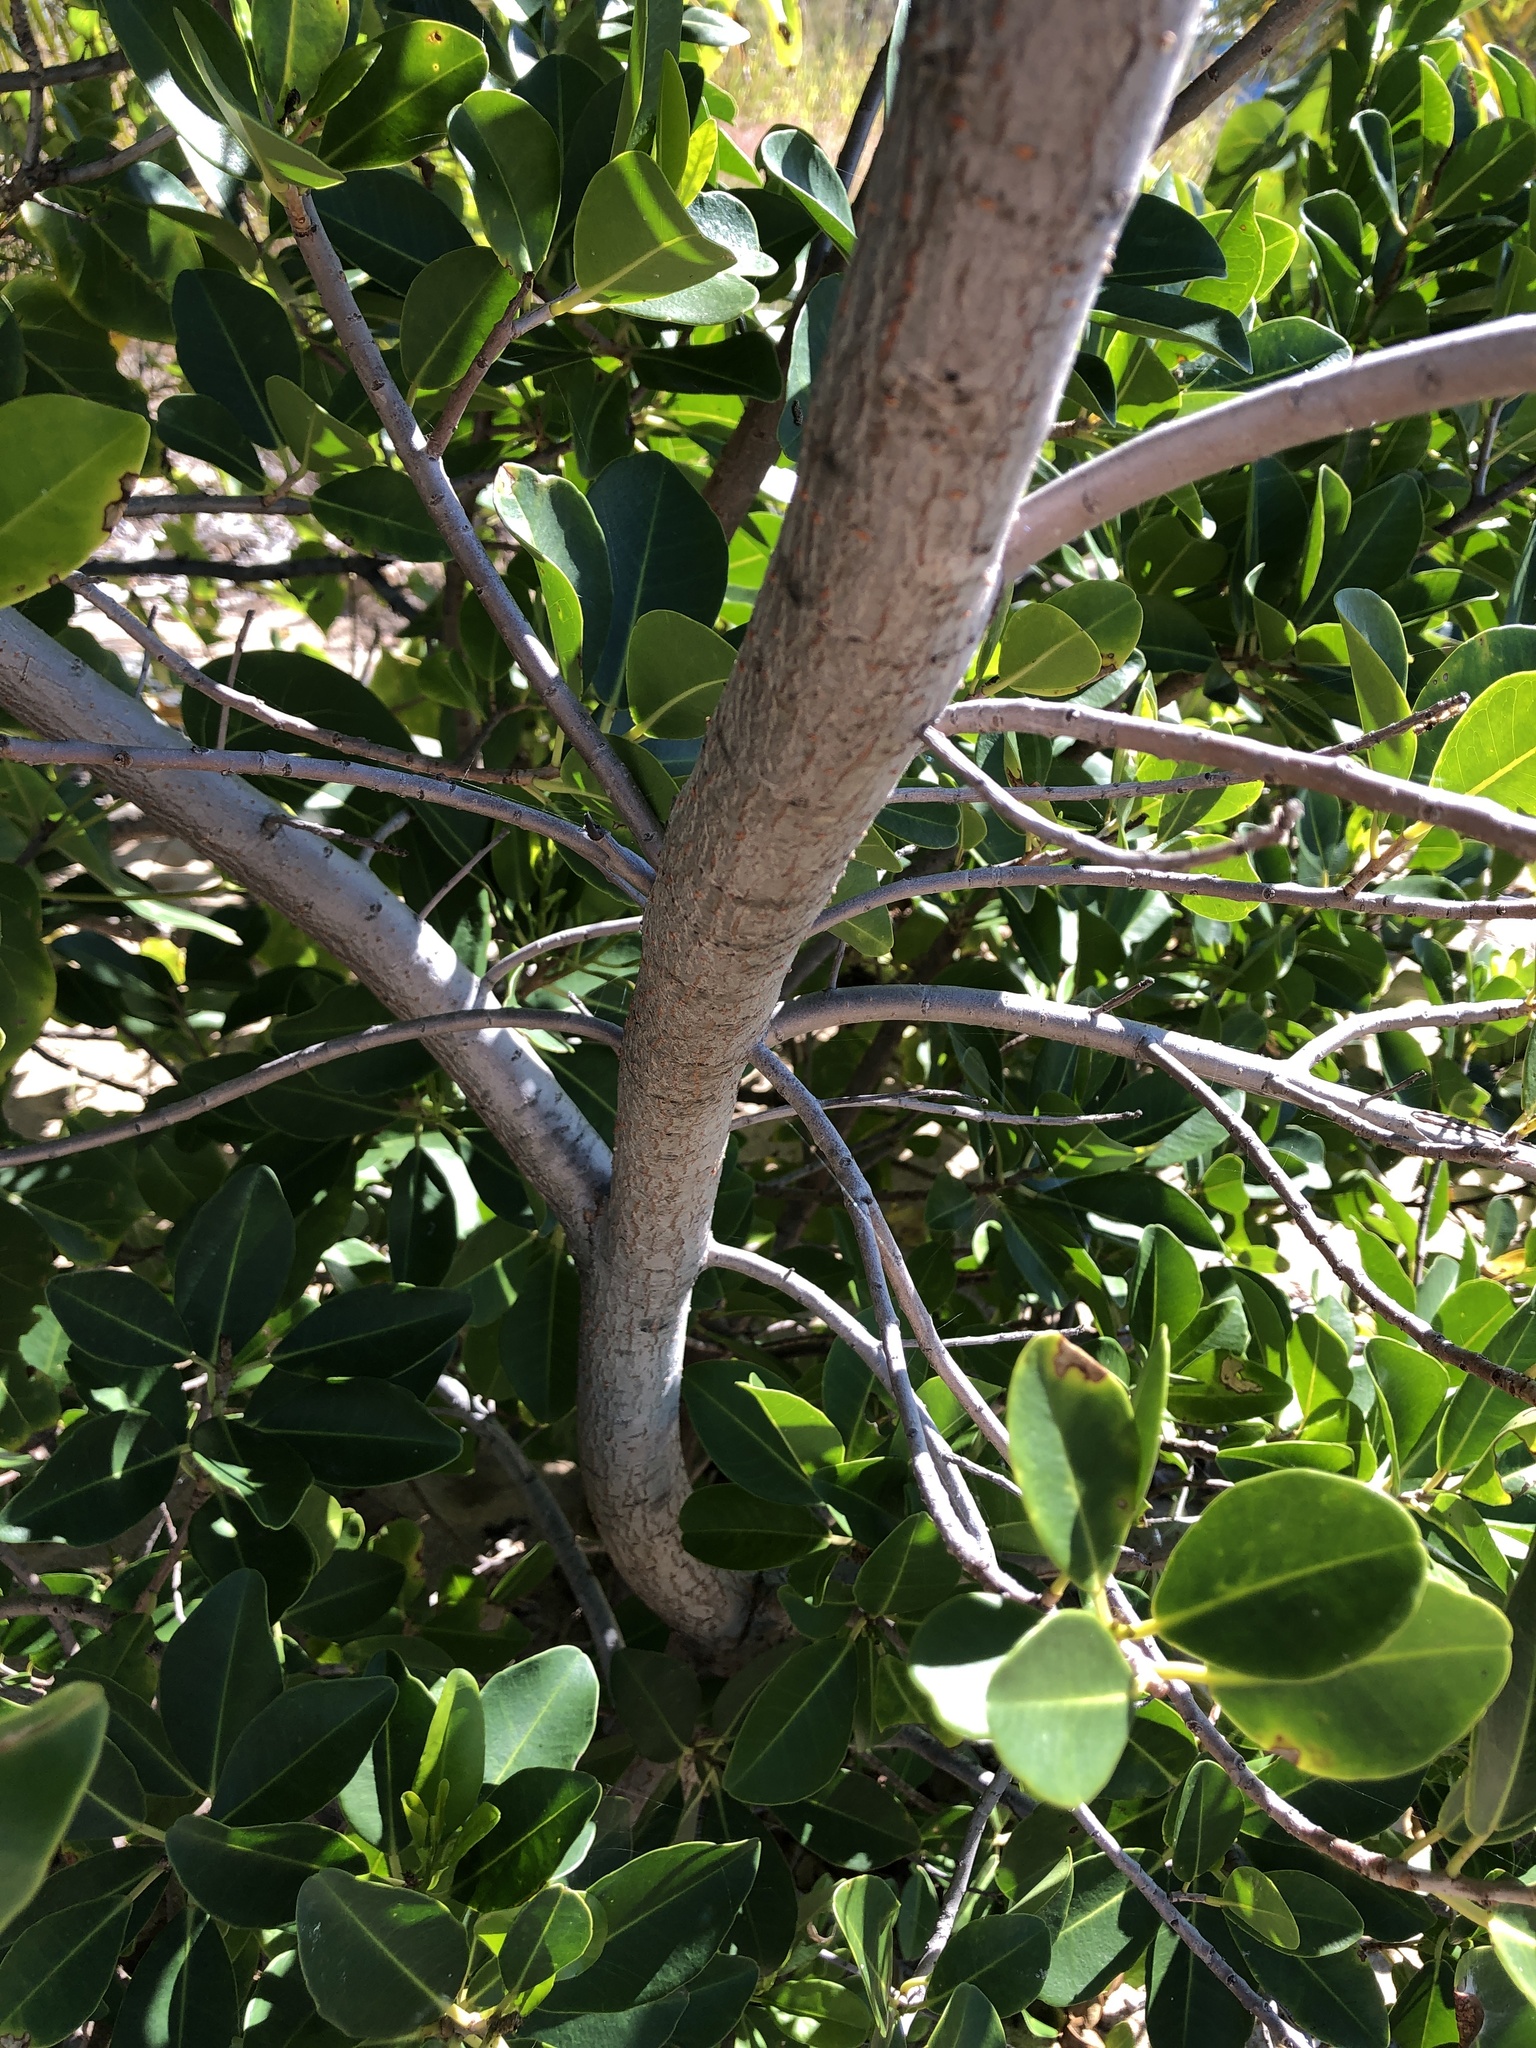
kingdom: Plantae
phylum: Tracheophyta
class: Magnoliopsida
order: Malpighiales
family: Euphorbiaceae
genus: Excoecaria
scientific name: Excoecaria agallocha
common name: River poisontree
